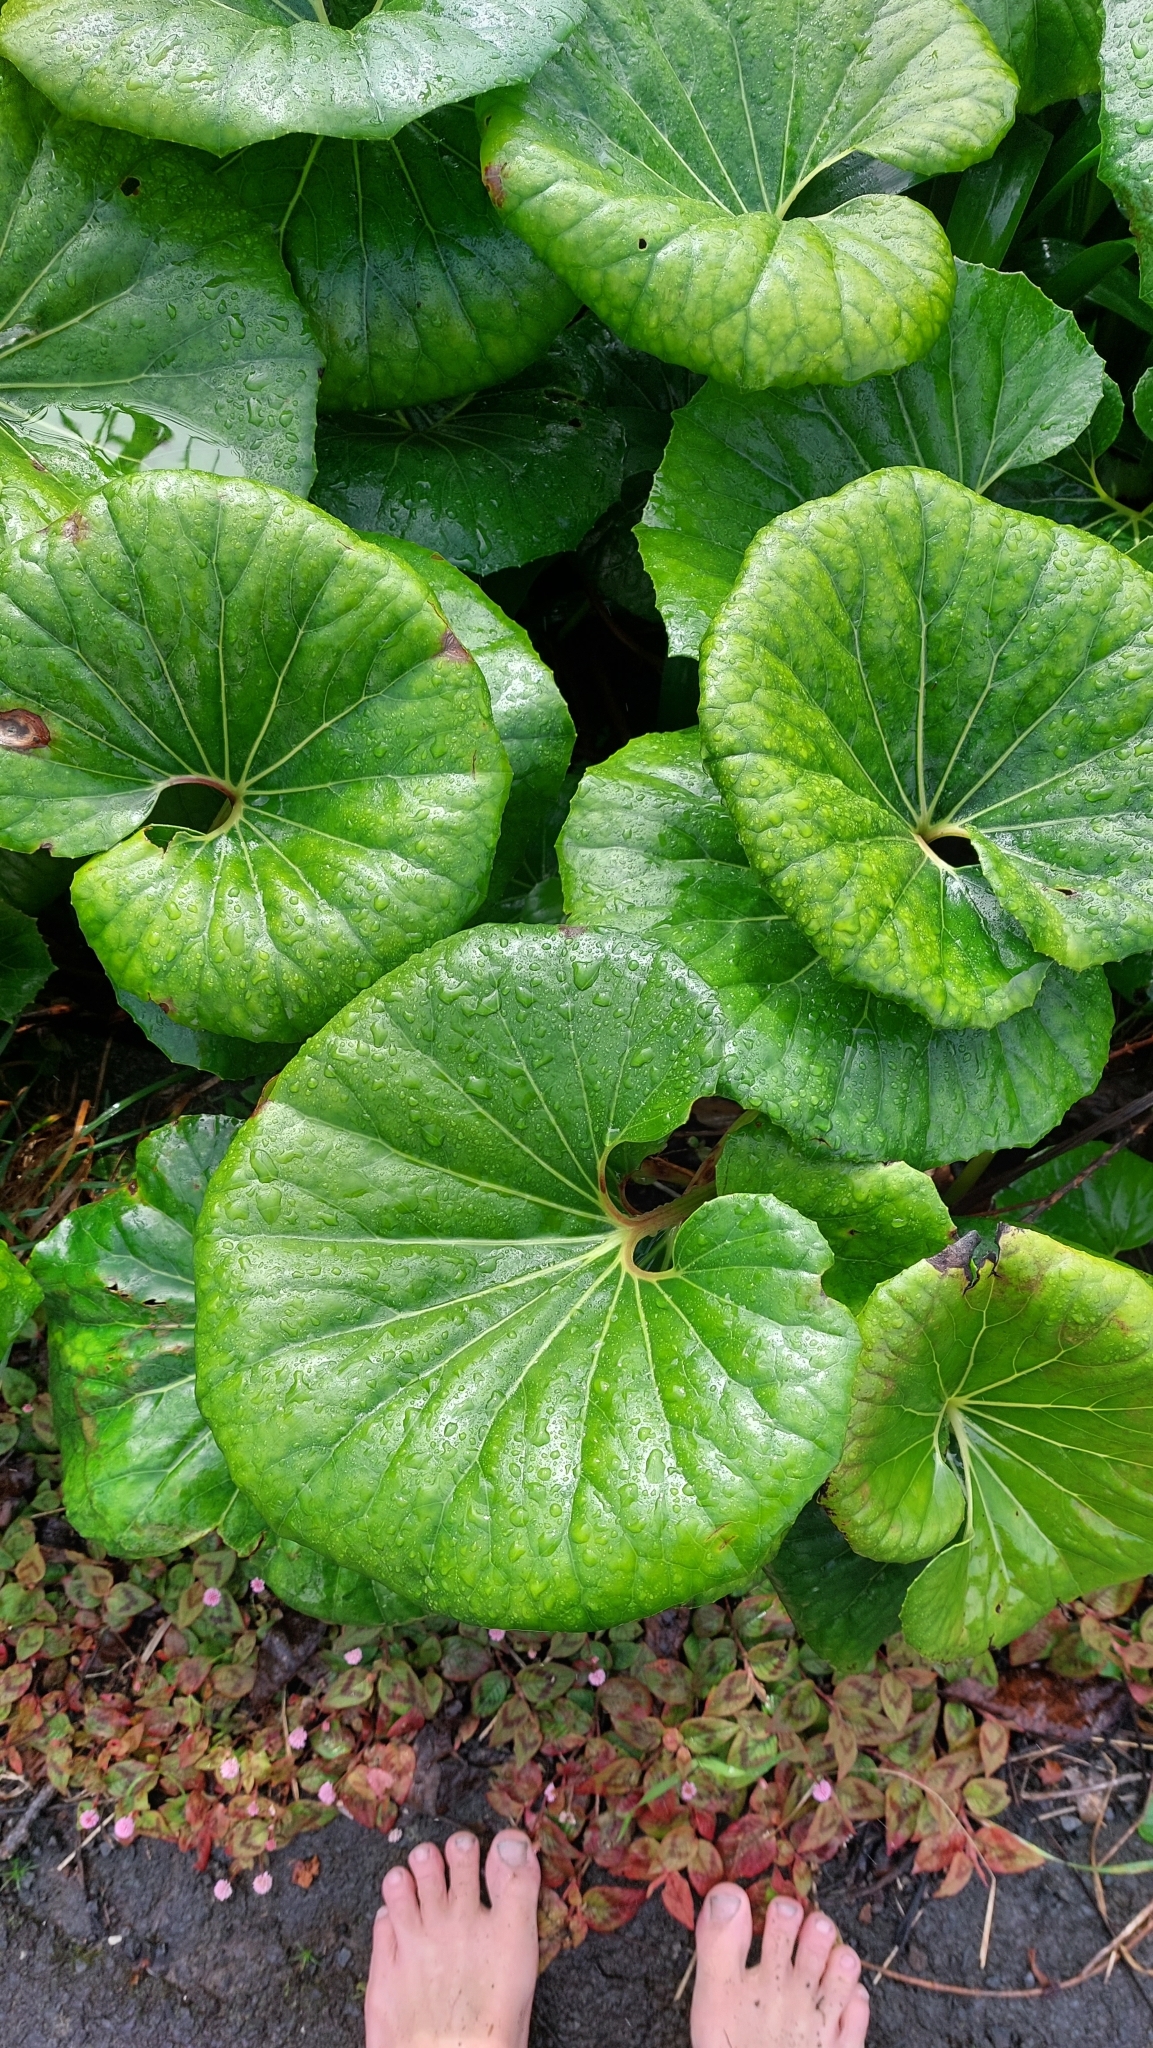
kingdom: Plantae
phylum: Tracheophyta
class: Magnoliopsida
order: Asterales
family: Asteraceae
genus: Farfugium
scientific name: Farfugium japonicum
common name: Leopardplant
